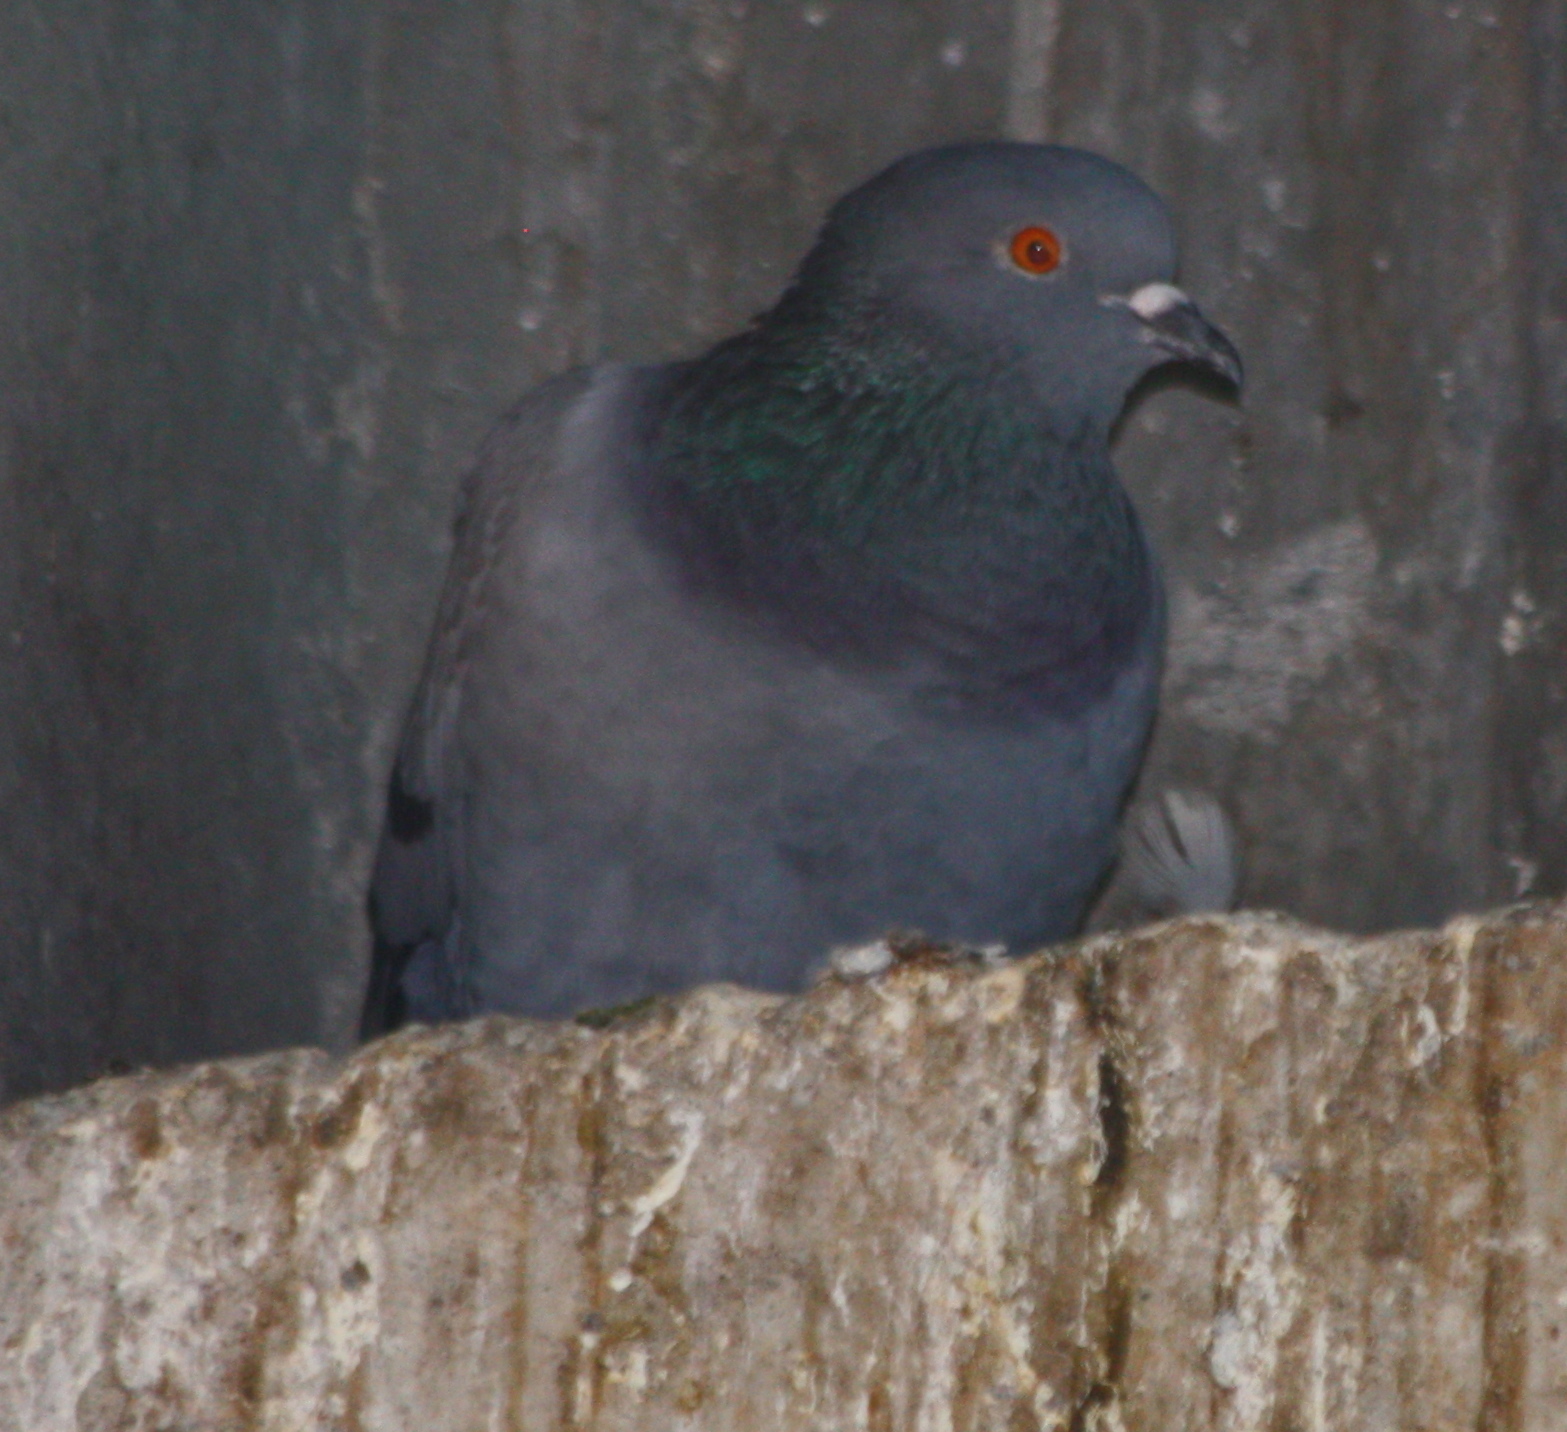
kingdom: Animalia
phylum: Chordata
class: Aves
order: Columbiformes
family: Columbidae
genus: Columba
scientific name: Columba livia
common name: Rock pigeon
